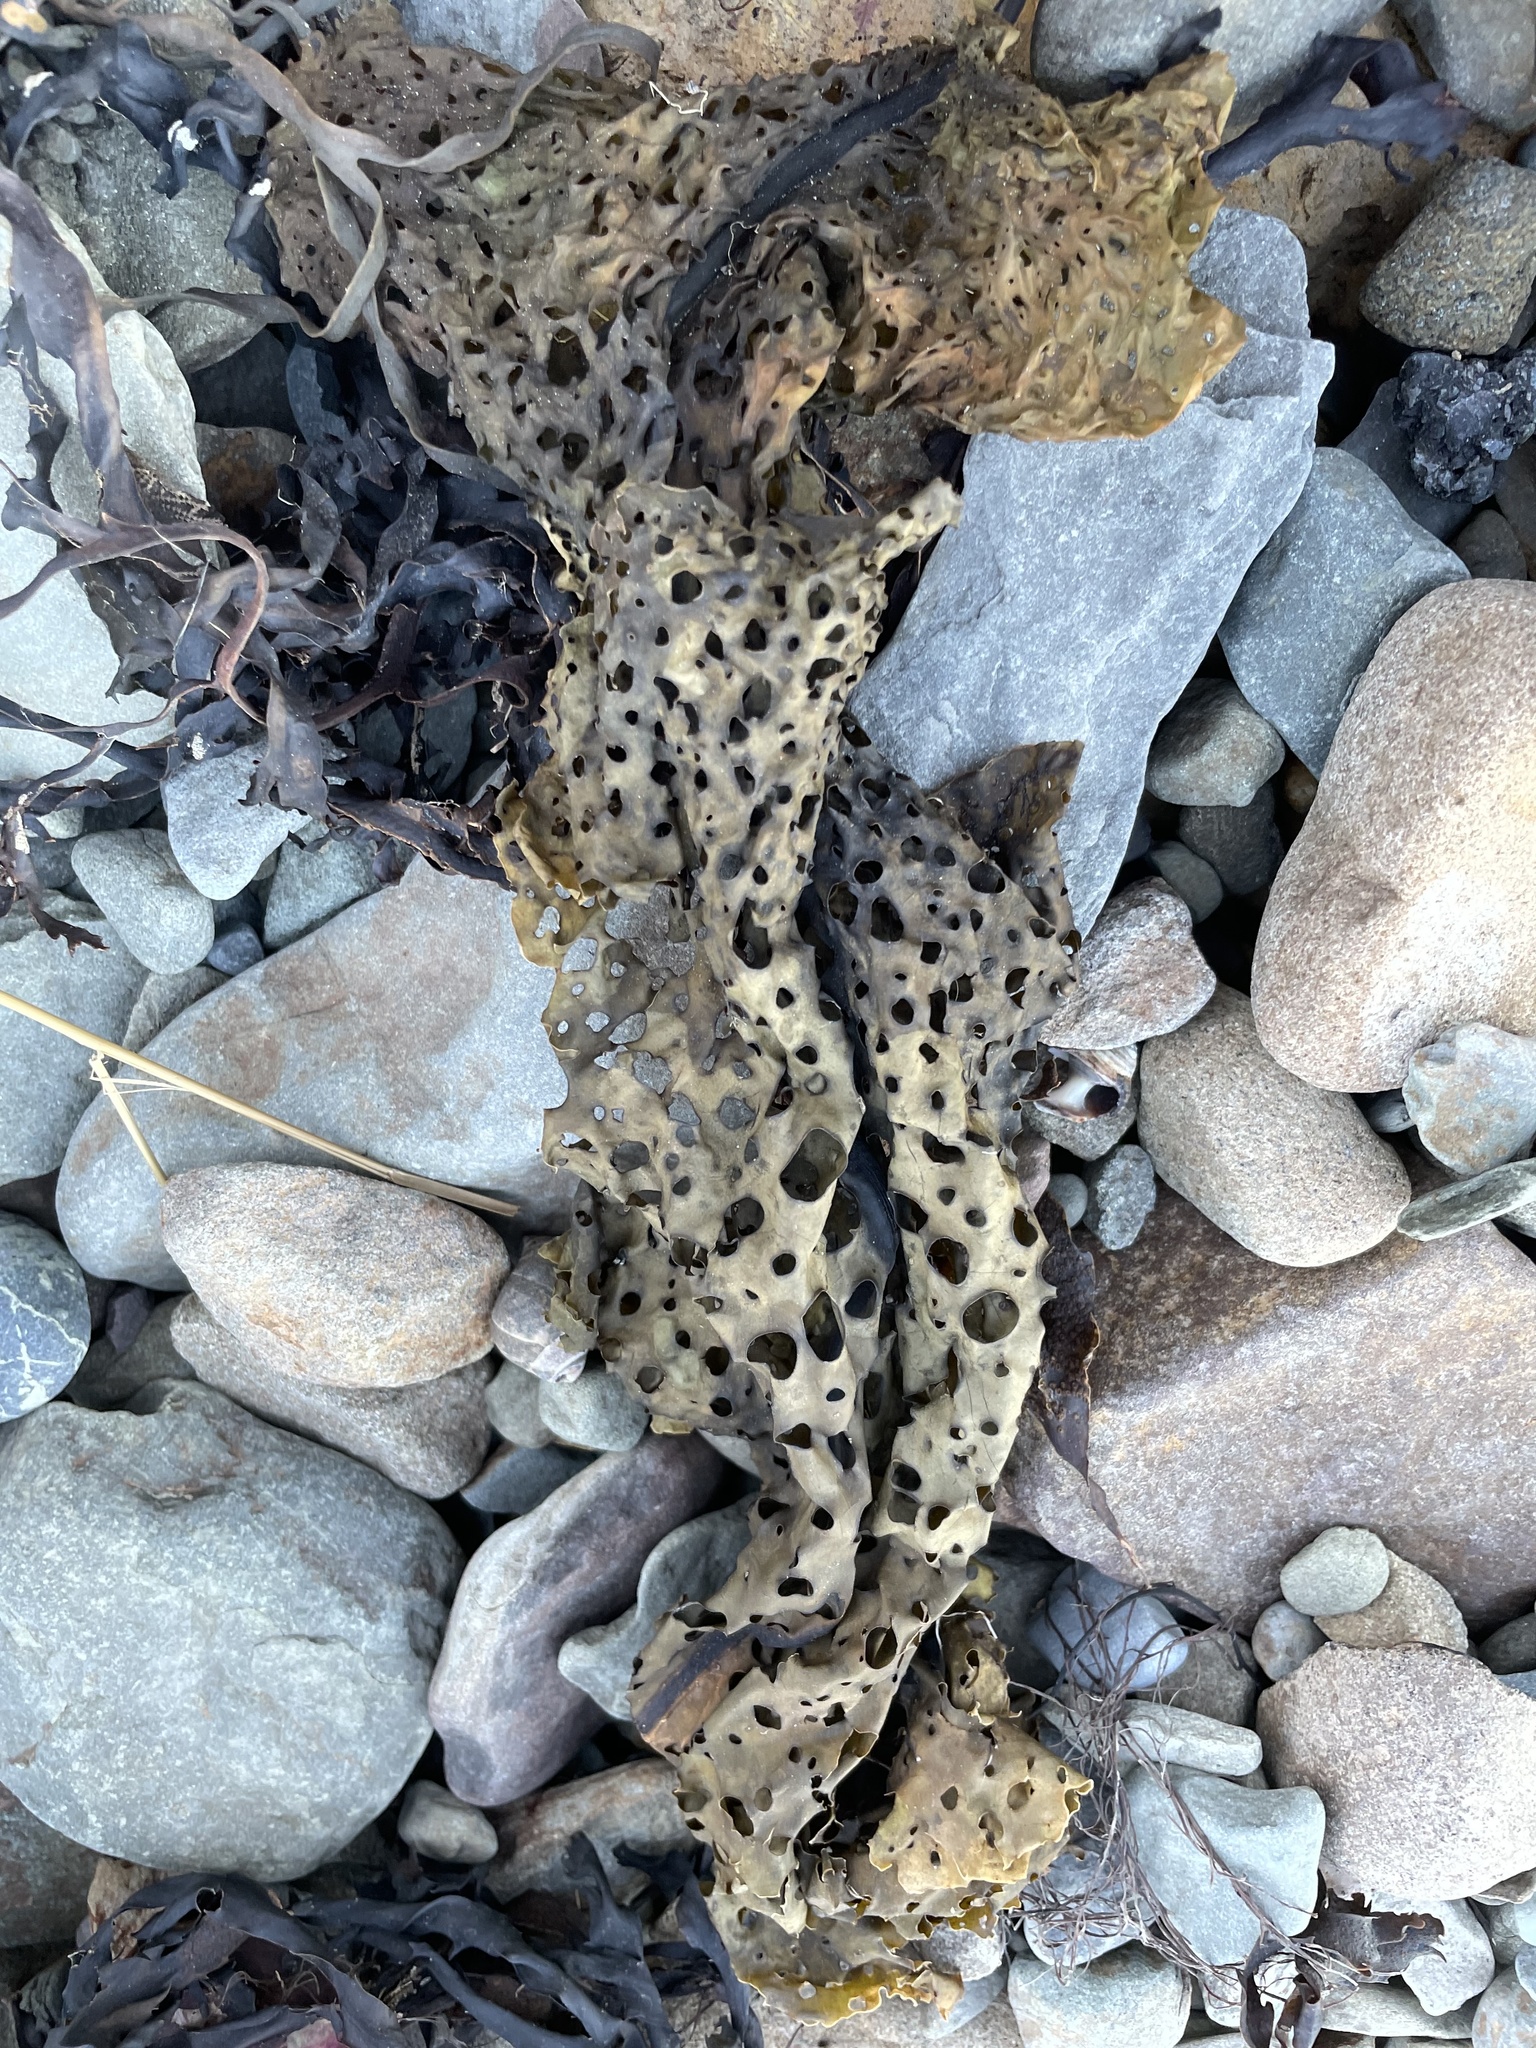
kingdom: Chromista
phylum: Ochrophyta
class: Phaeophyceae
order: Laminariales
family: Costariaceae
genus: Agarum
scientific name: Agarum clathratum
